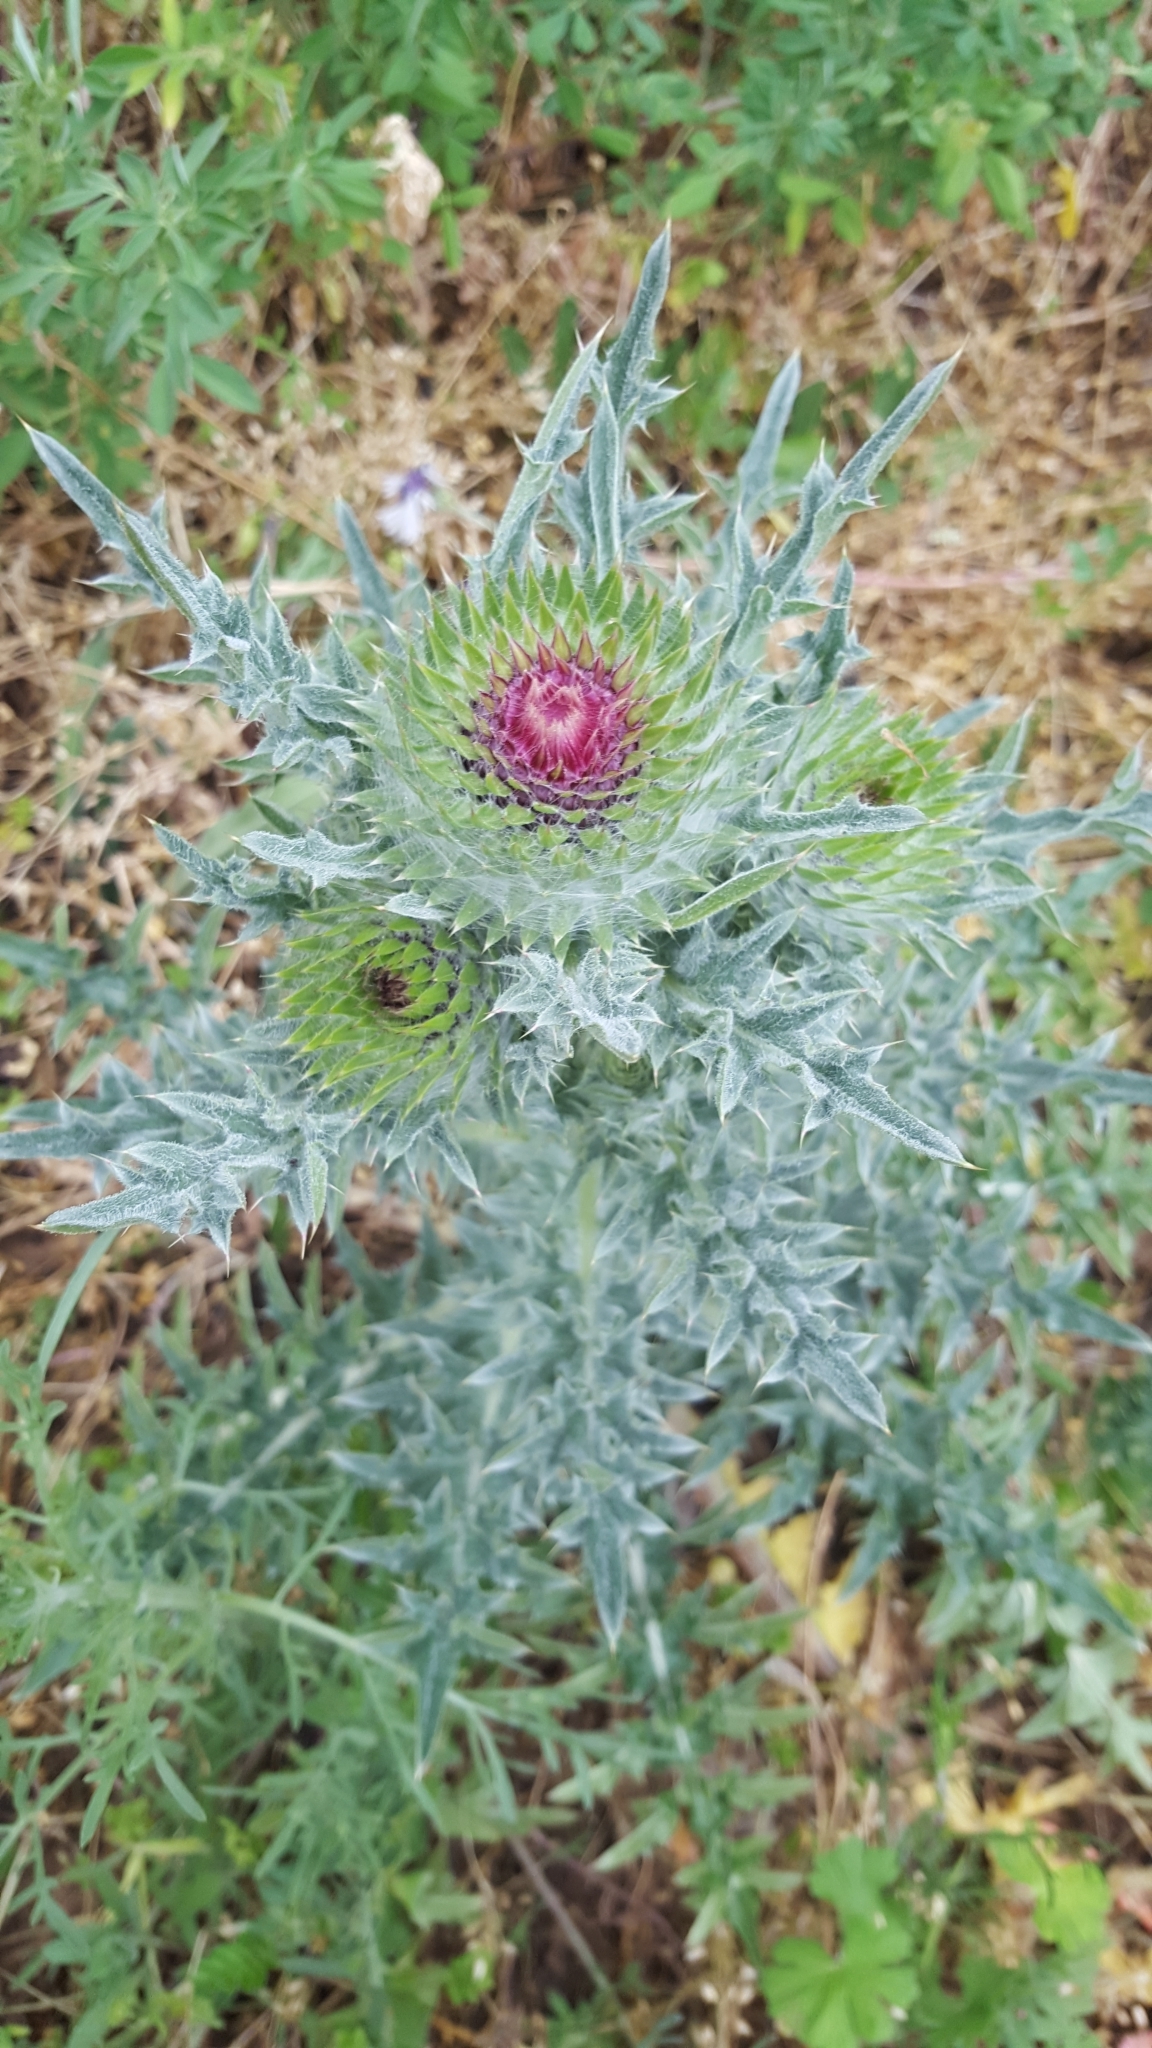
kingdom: Plantae
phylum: Tracheophyta
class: Magnoliopsida
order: Asterales
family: Asteraceae
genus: Carduus
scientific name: Carduus nutans
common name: Musk thistle
